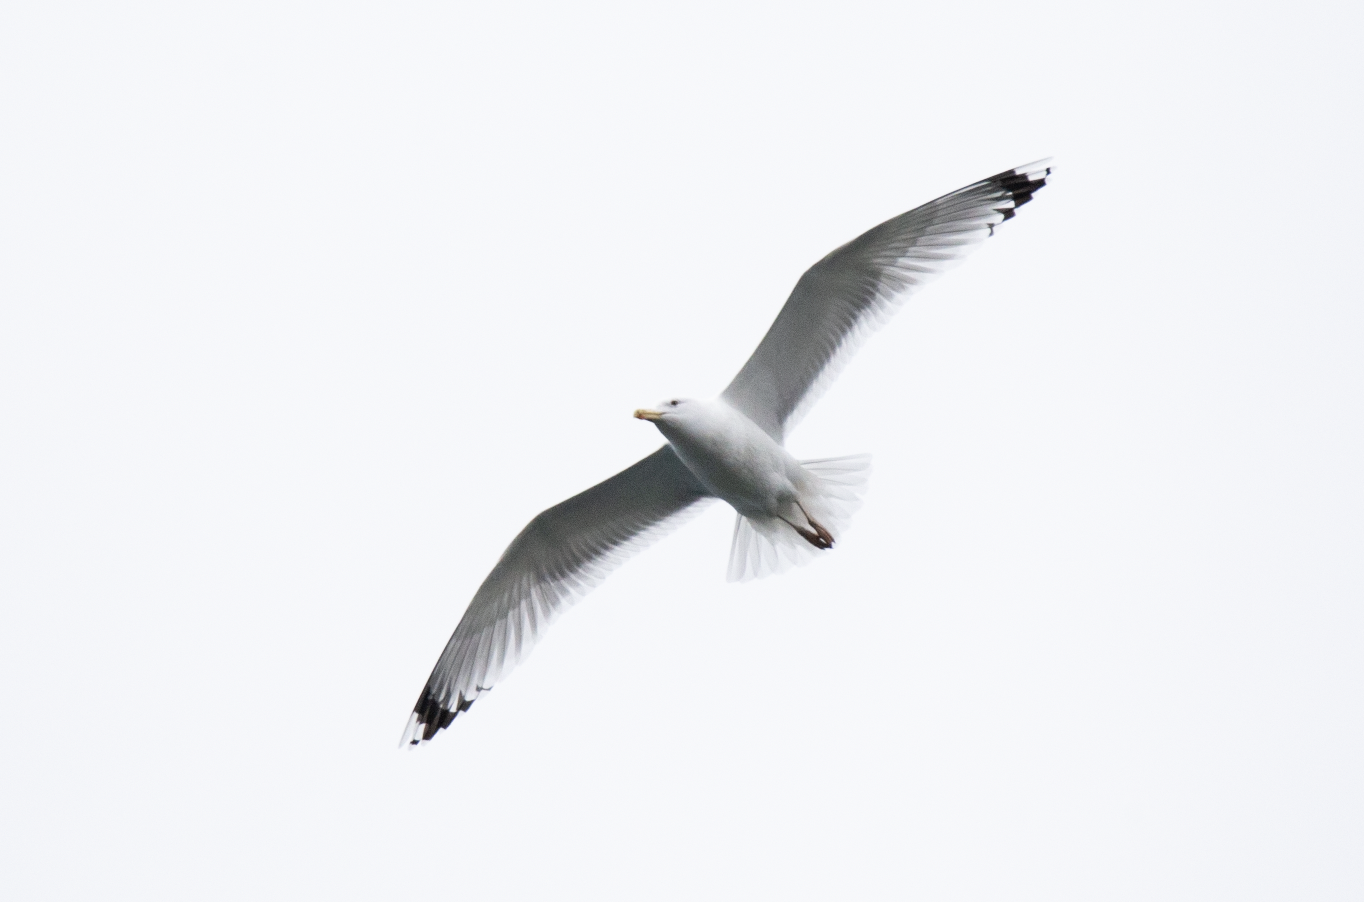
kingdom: Animalia
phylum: Chordata
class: Aves
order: Charadriiformes
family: Laridae
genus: Larus
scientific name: Larus cachinnans
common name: Caspian gull
